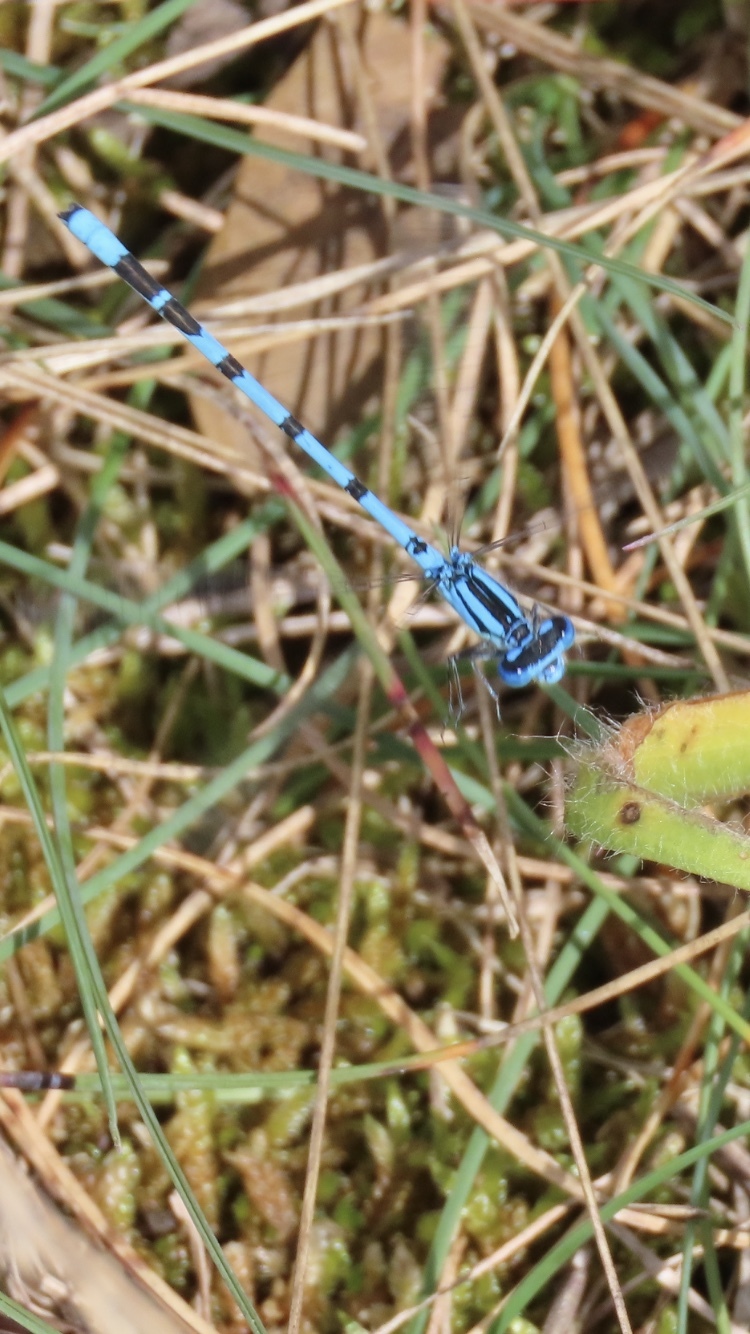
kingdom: Animalia
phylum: Arthropoda
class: Insecta
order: Odonata
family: Coenagrionidae
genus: Enallagma
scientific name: Enallagma cyathigerum
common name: Common blue damselfly
